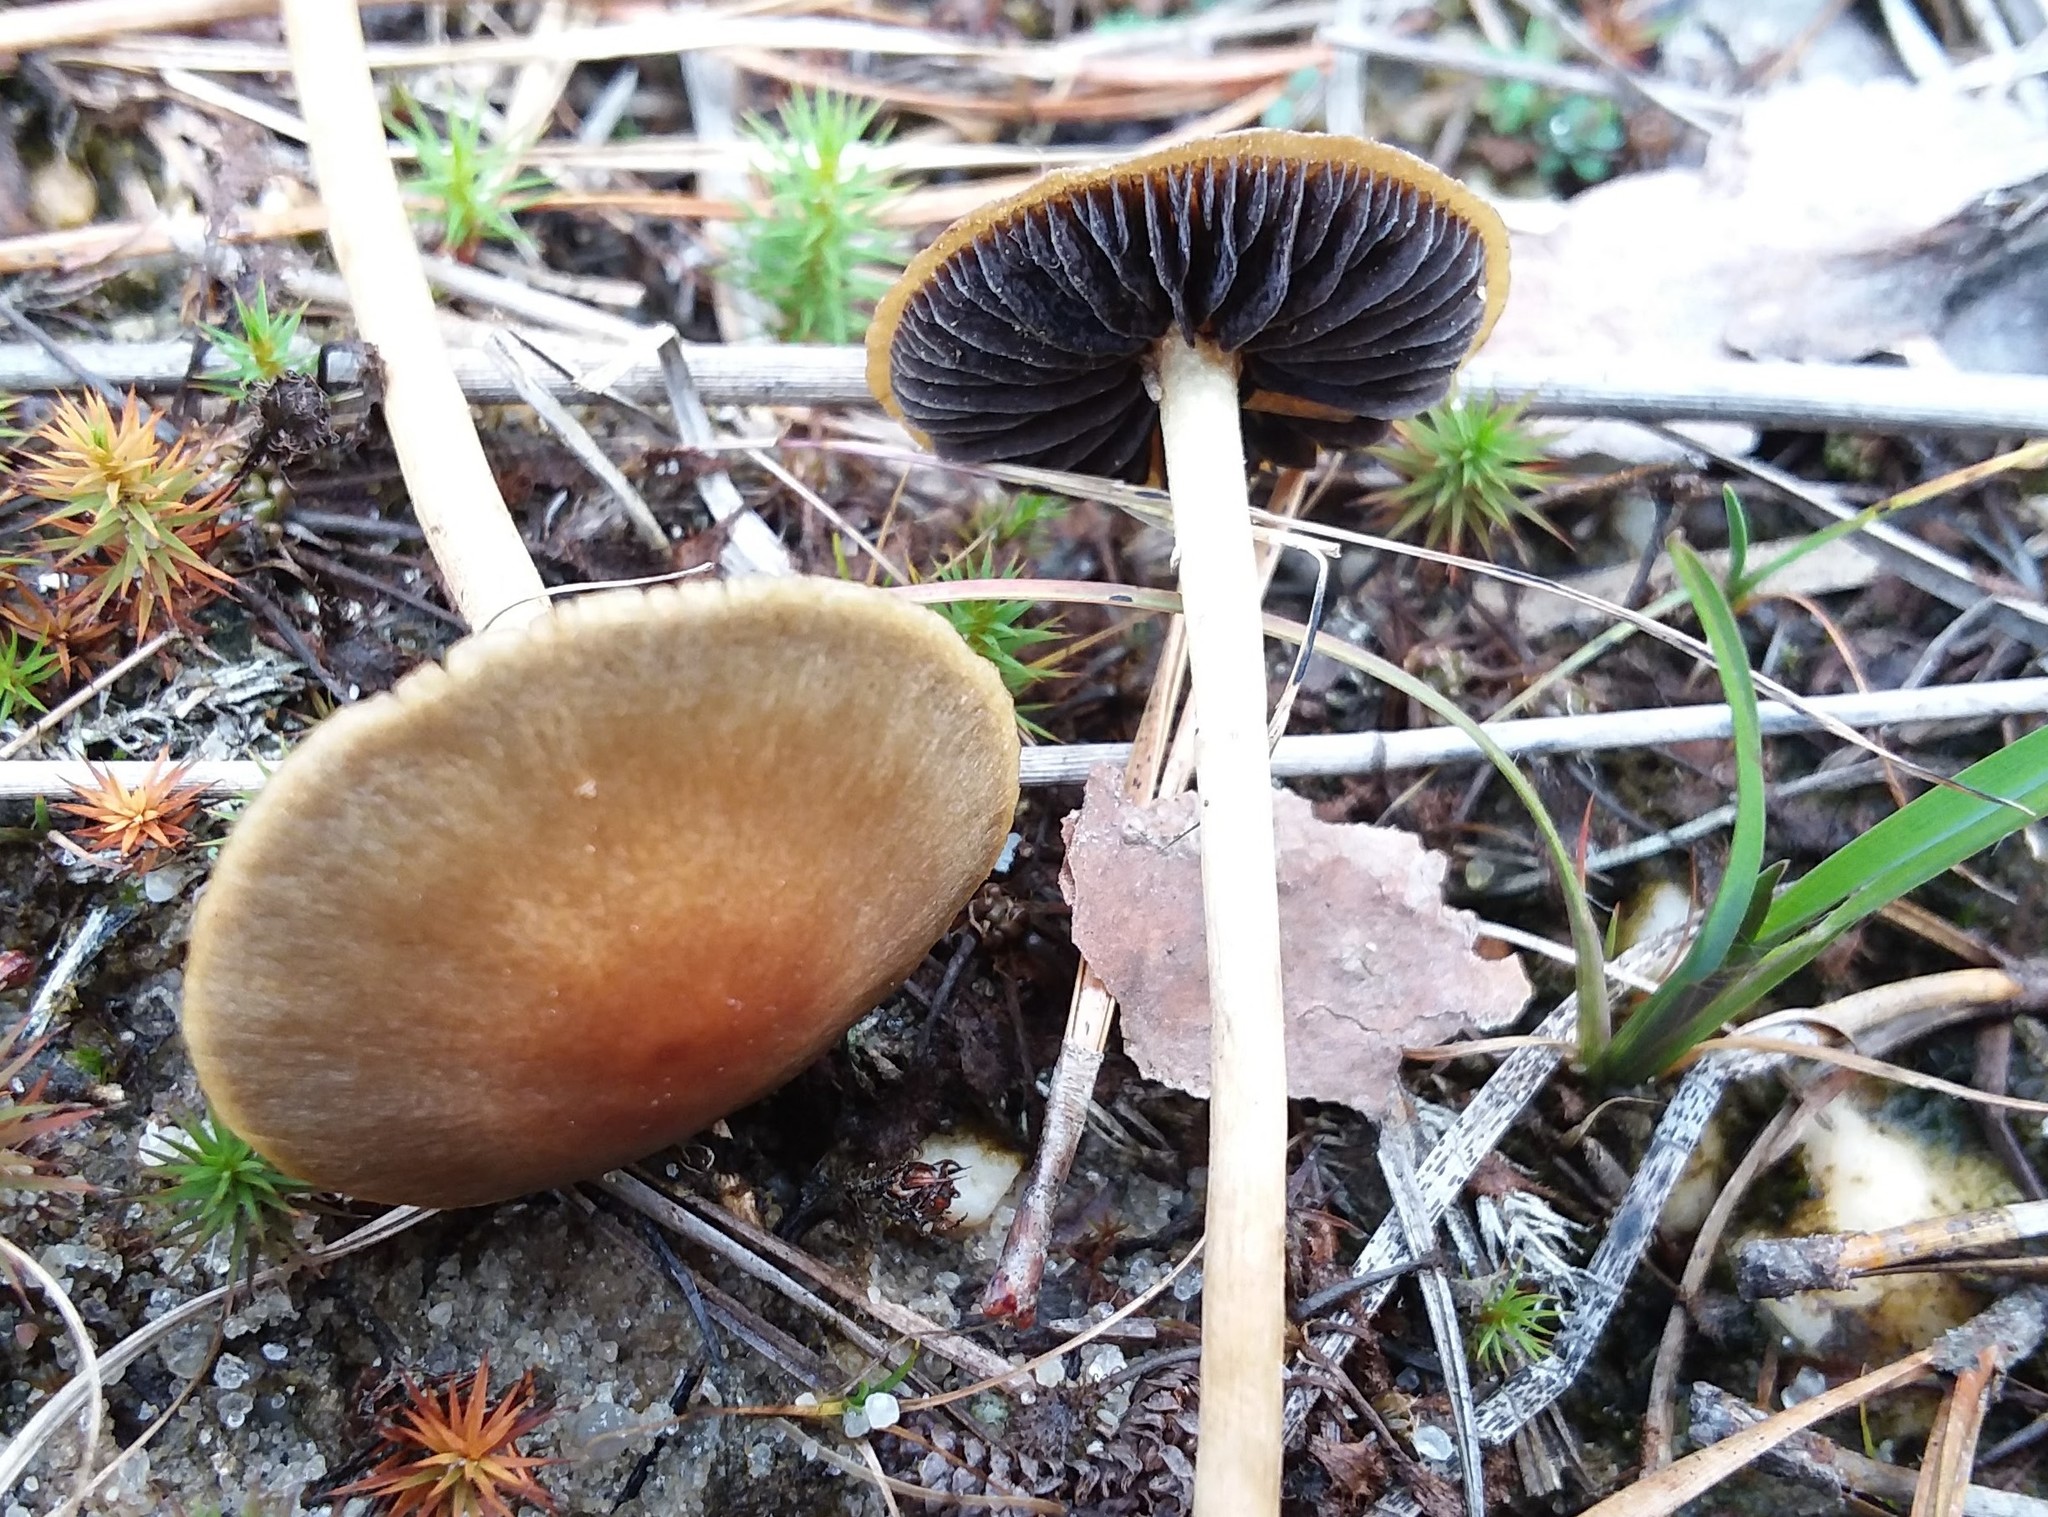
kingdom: Fungi
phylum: Basidiomycota
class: Agaricomycetes
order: Agaricales
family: Strophariaceae
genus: Hypholoma
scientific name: Hypholoma elongatum
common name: Sphagnum brownie
